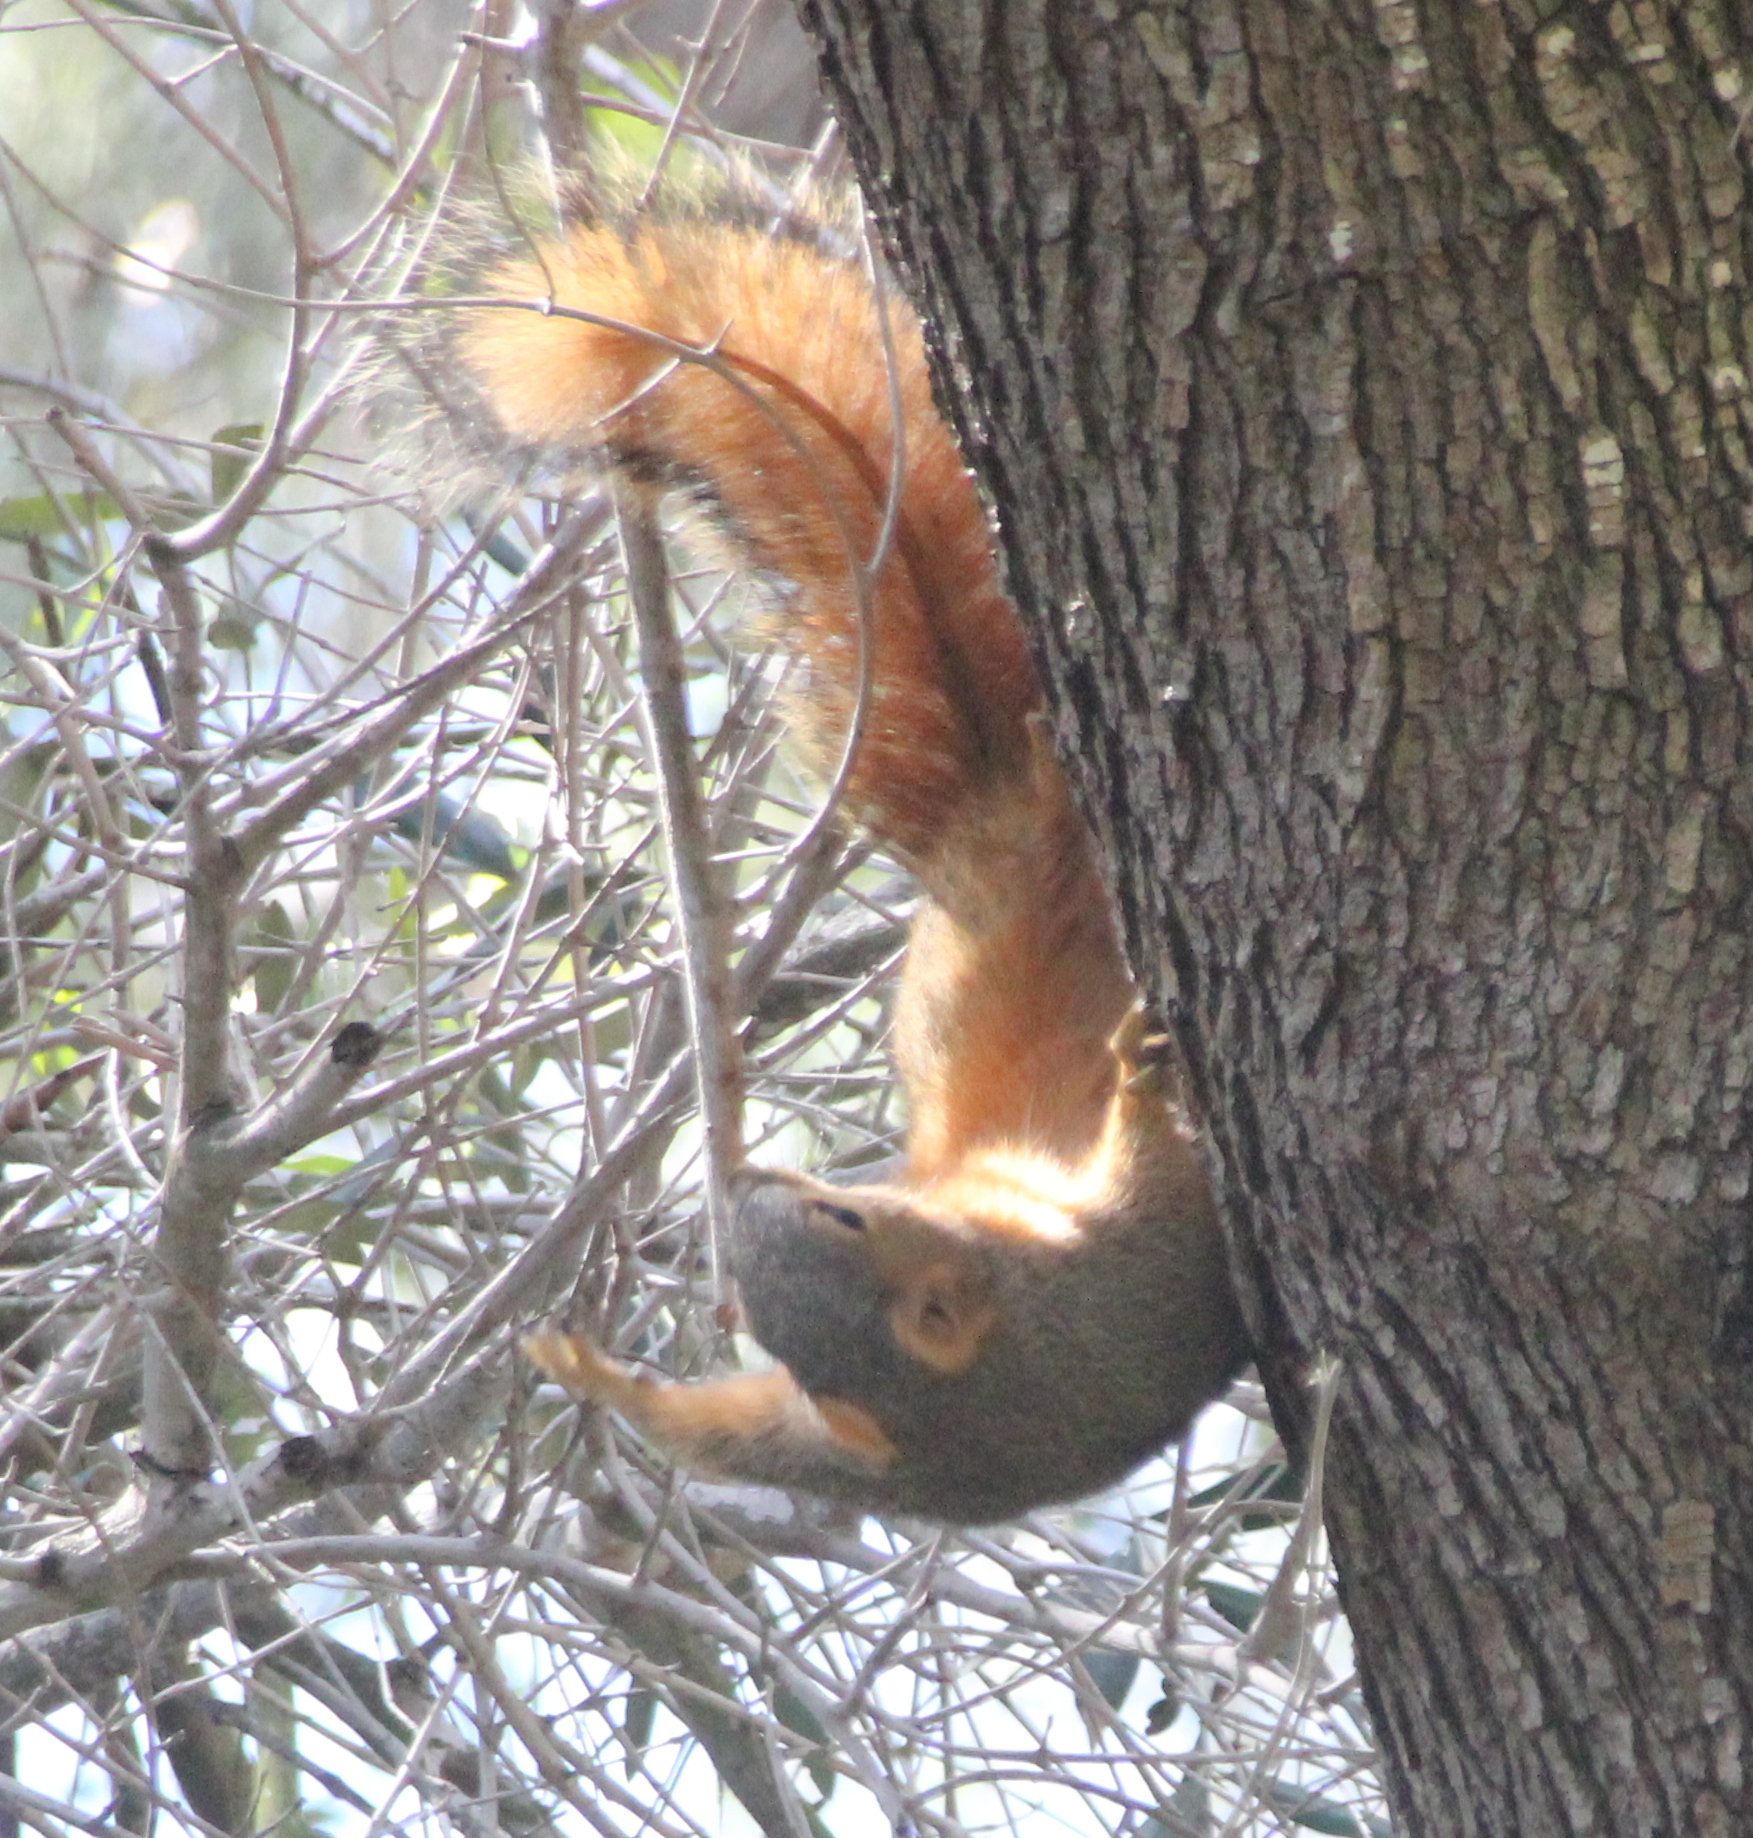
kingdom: Animalia
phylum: Chordata
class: Mammalia
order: Rodentia
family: Sciuridae
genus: Sciurus
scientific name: Sciurus niger
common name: Fox squirrel
